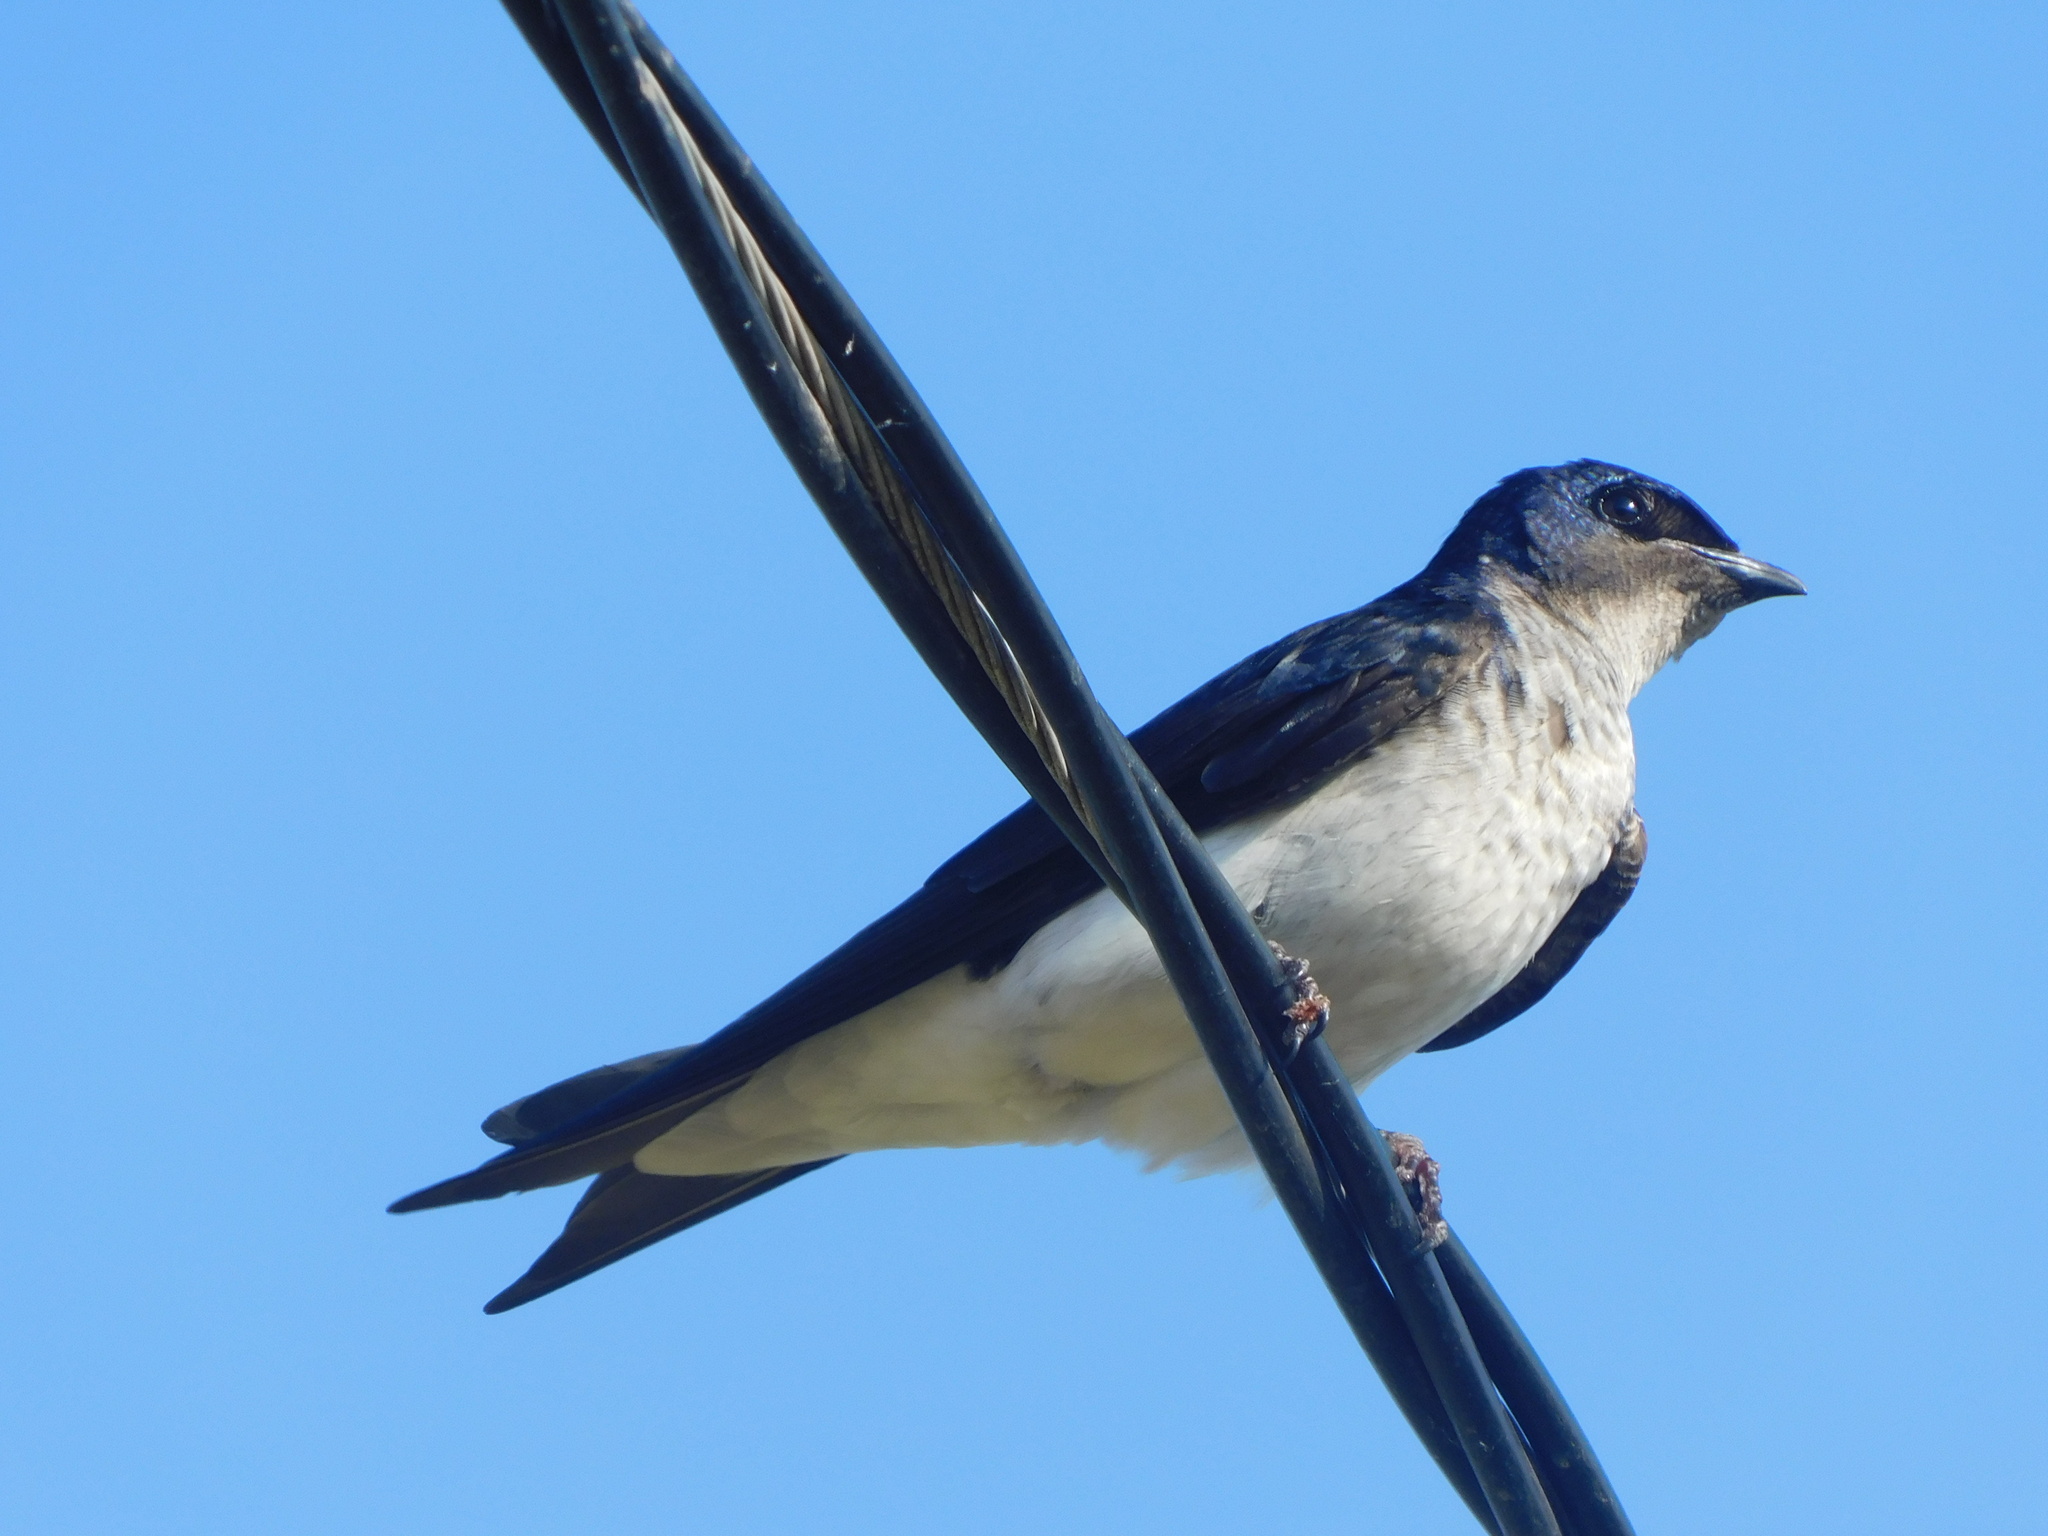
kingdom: Animalia
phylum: Chordata
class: Aves
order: Passeriformes
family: Hirundinidae
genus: Progne
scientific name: Progne chalybea
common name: Grey-breasted martin
